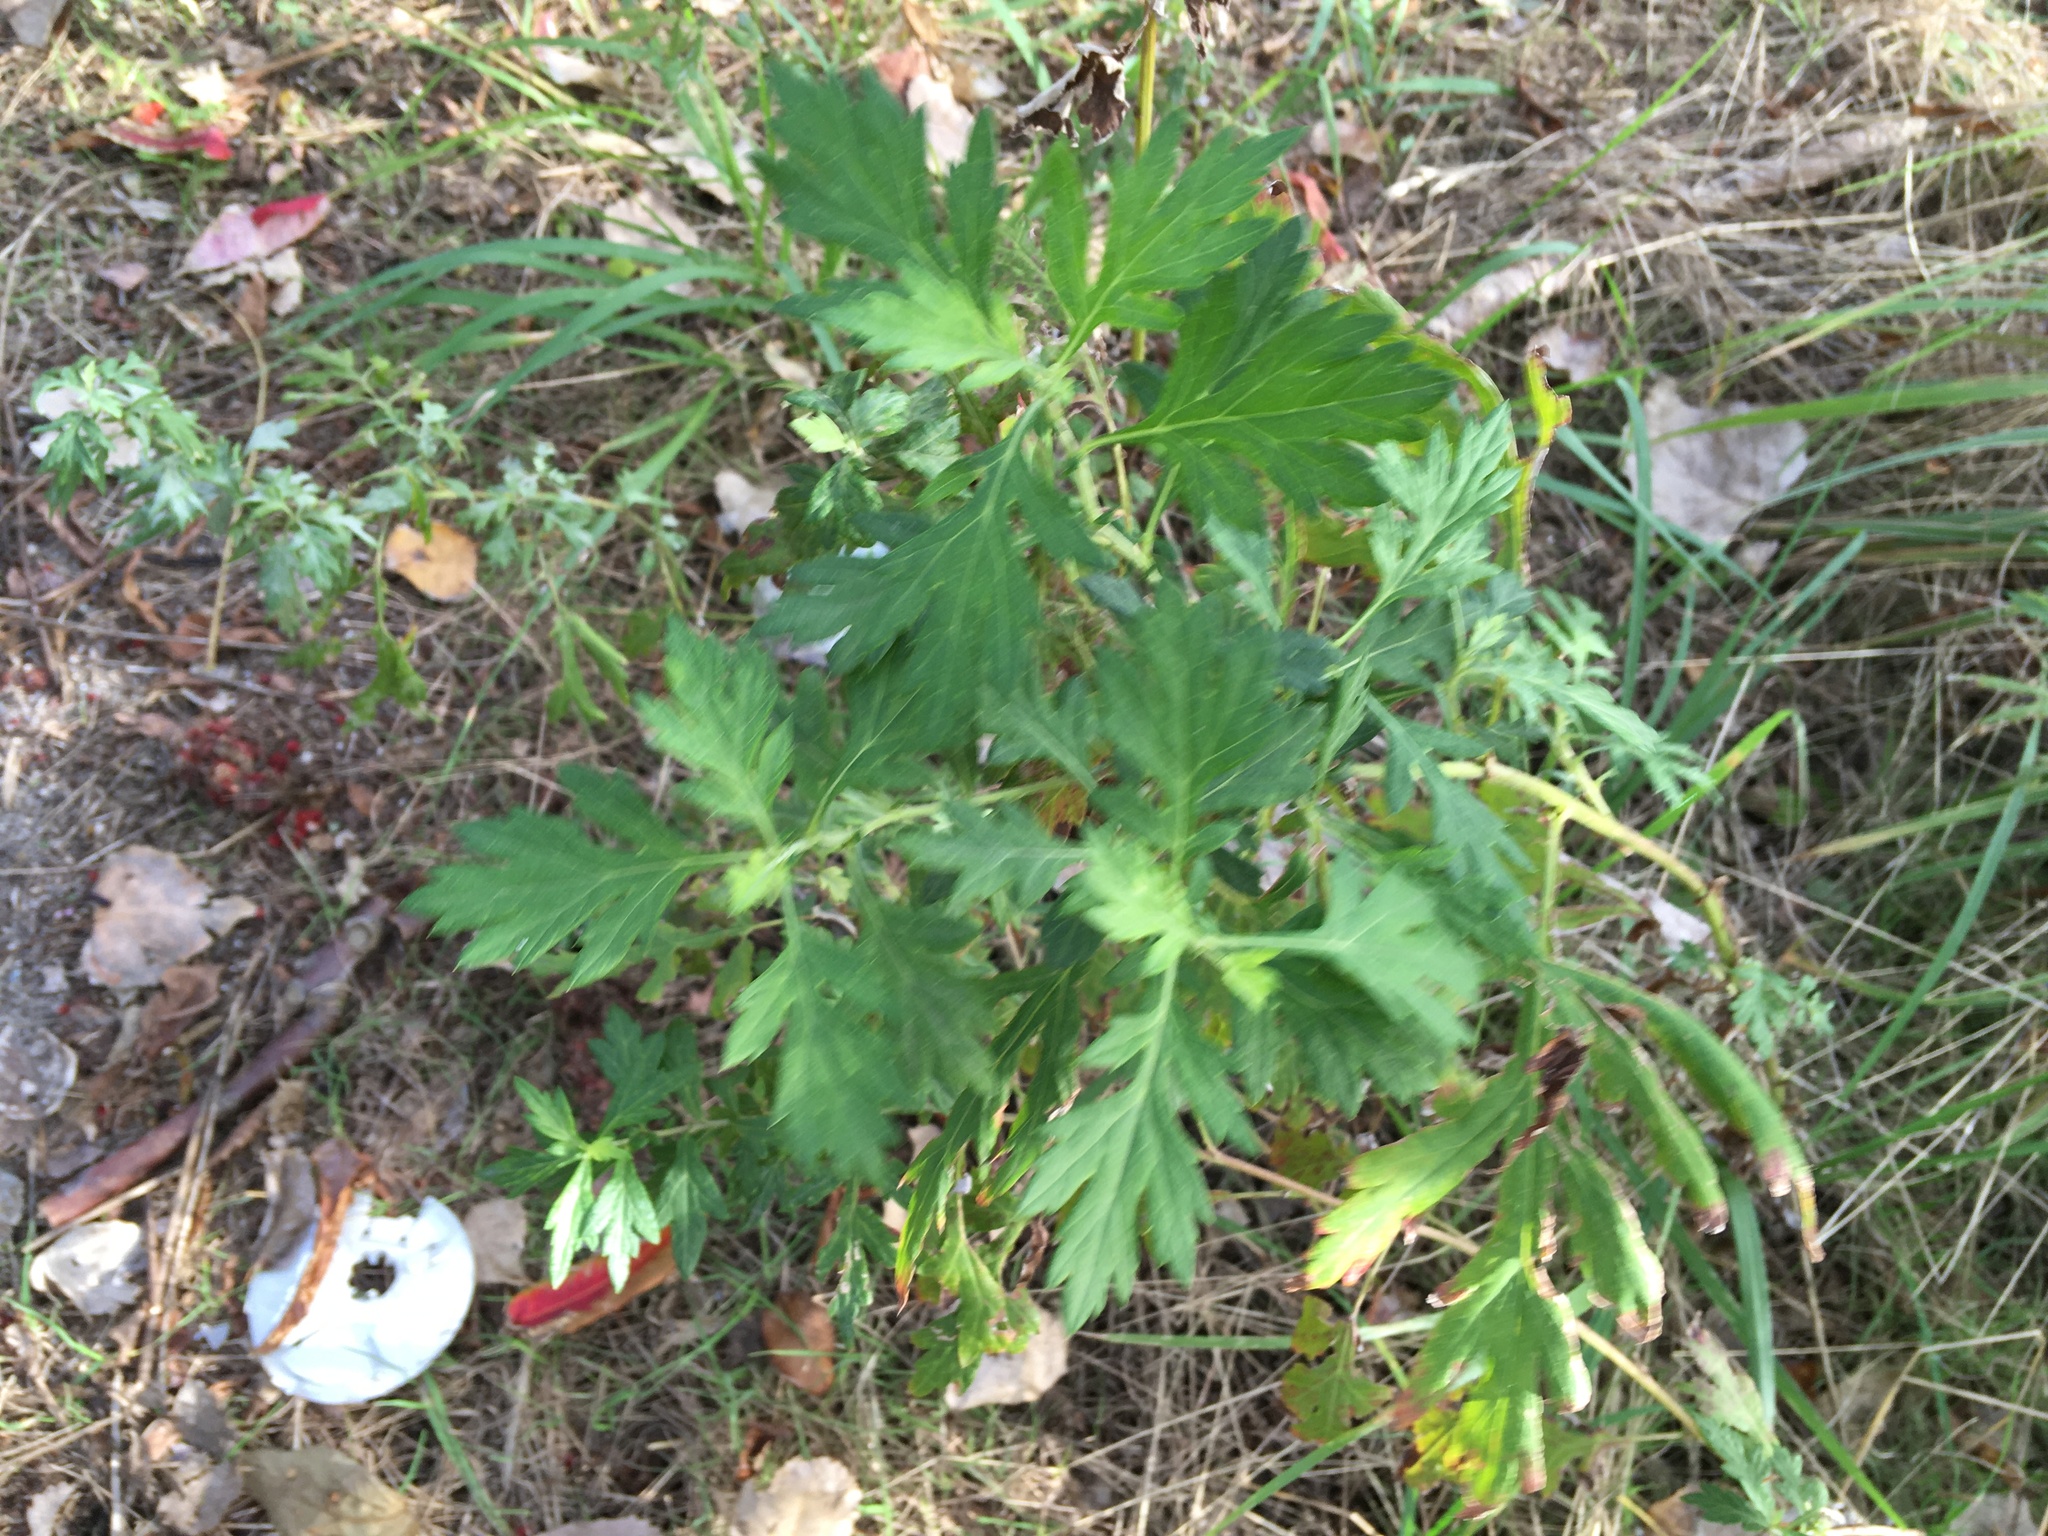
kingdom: Plantae
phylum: Tracheophyta
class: Magnoliopsida
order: Asterales
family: Asteraceae
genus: Artemisia
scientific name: Artemisia vulgaris
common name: Mugwort
